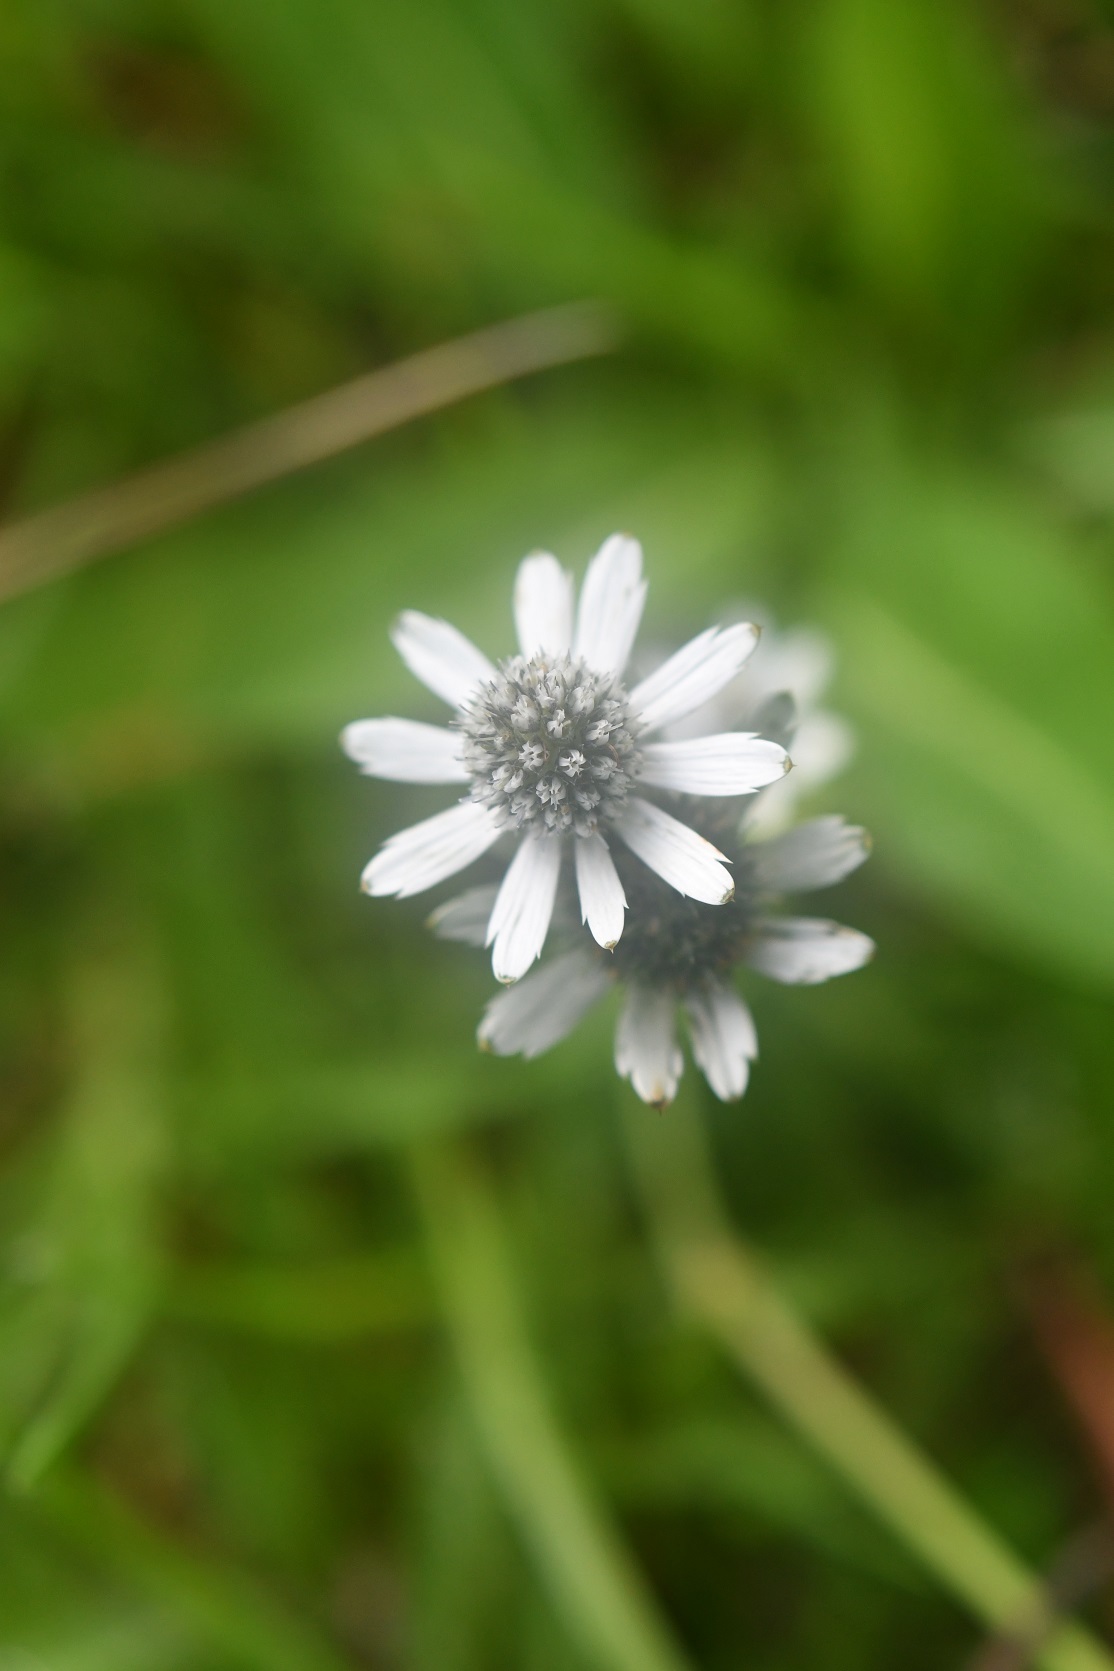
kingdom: Plantae
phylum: Tracheophyta
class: Magnoliopsida
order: Apiales
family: Apiaceae
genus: Eryngium
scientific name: Eryngium scaposum
